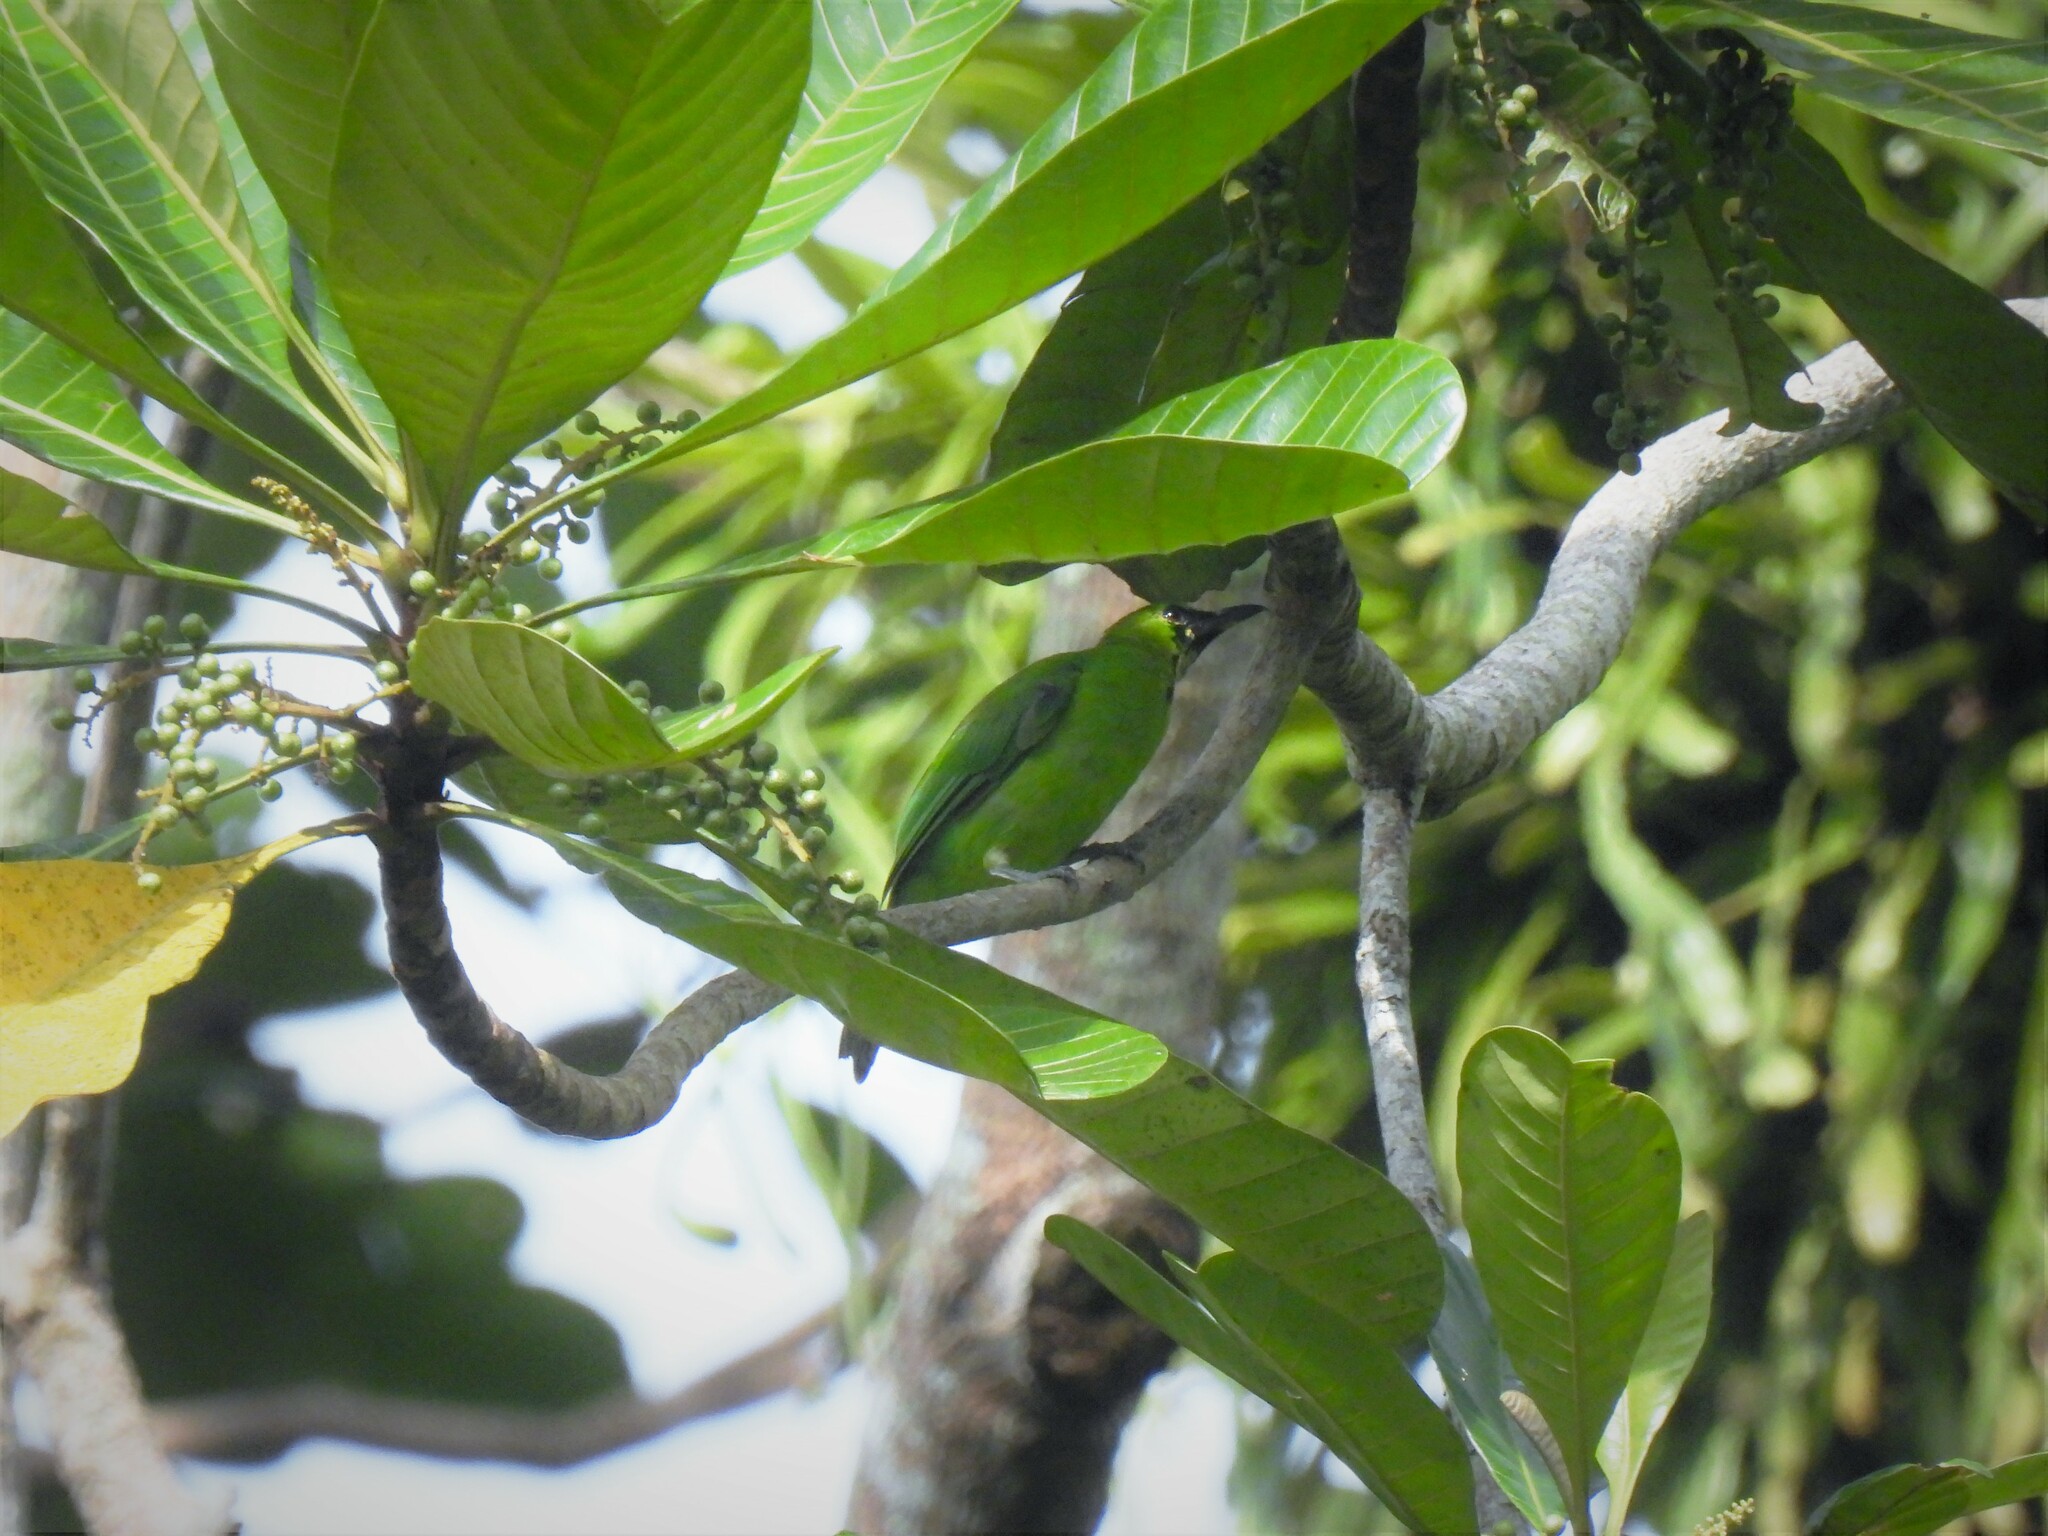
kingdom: Animalia
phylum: Chordata
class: Aves
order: Passeriformes
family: Chloropseidae
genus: Chloropsis
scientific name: Chloropsis sonnerati
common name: Greater green leafbird
